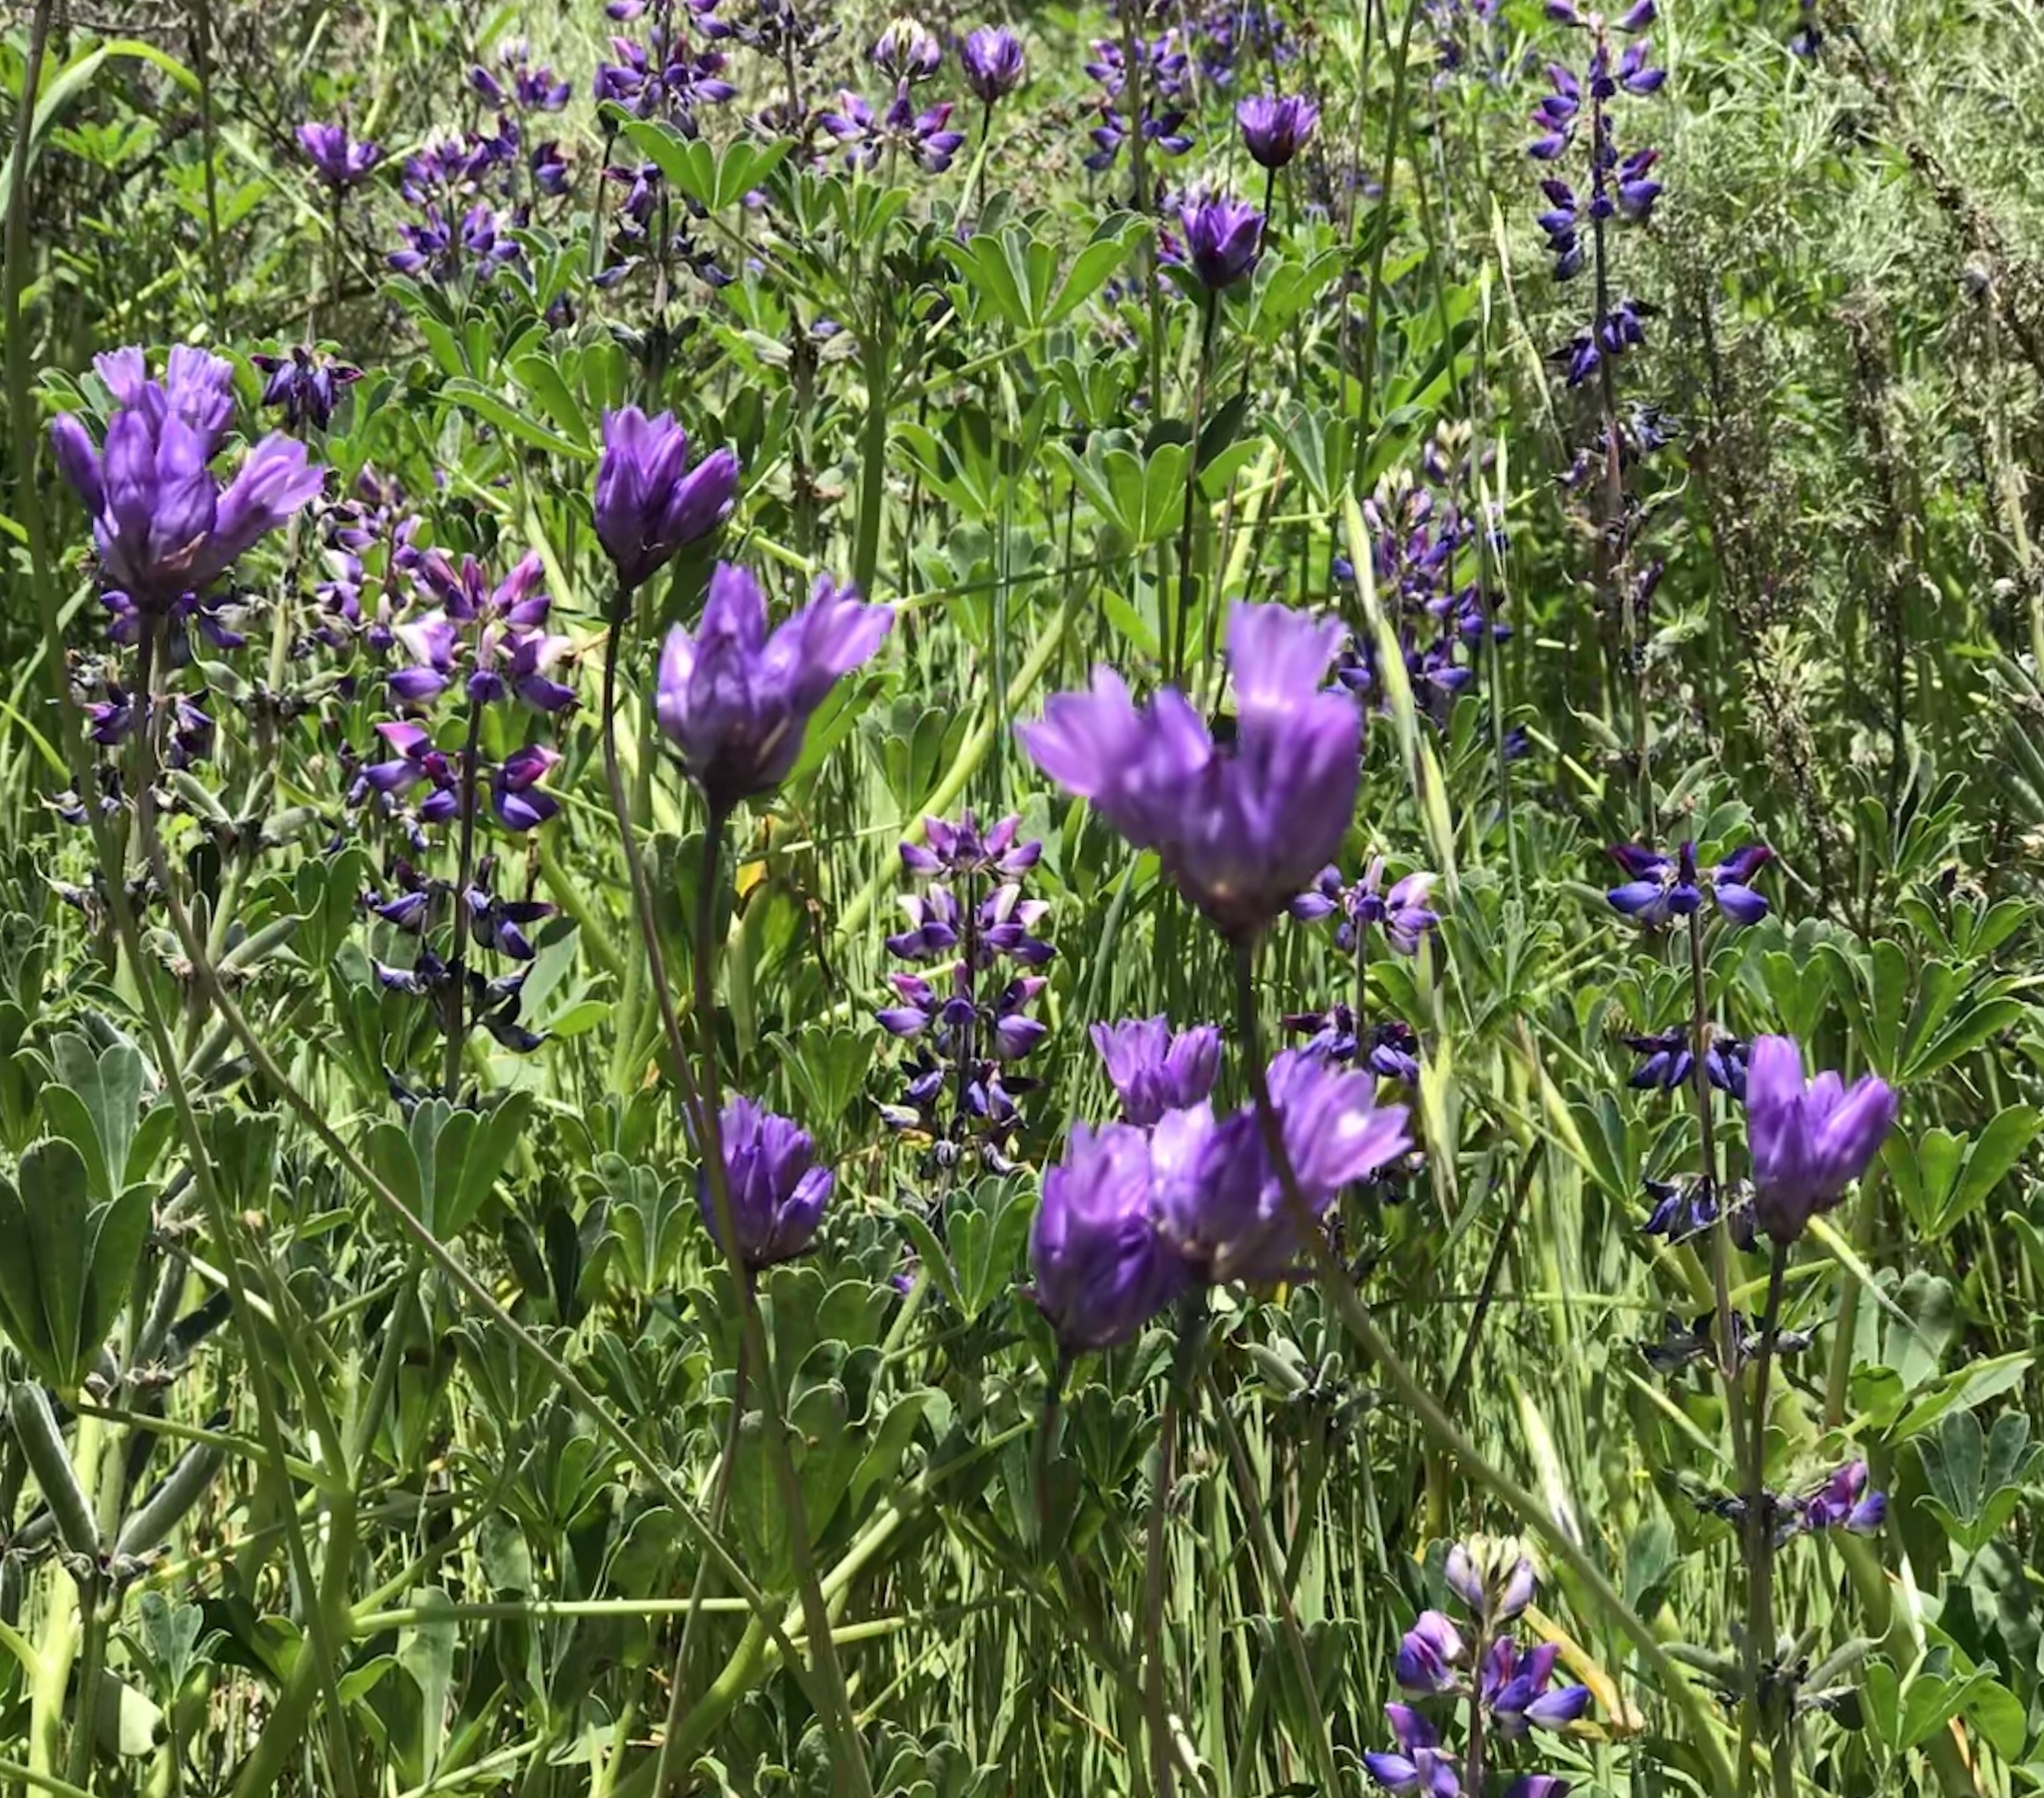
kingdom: Plantae
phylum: Tracheophyta
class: Liliopsida
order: Asparagales
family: Asparagaceae
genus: Dipterostemon
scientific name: Dipterostemon capitatus
